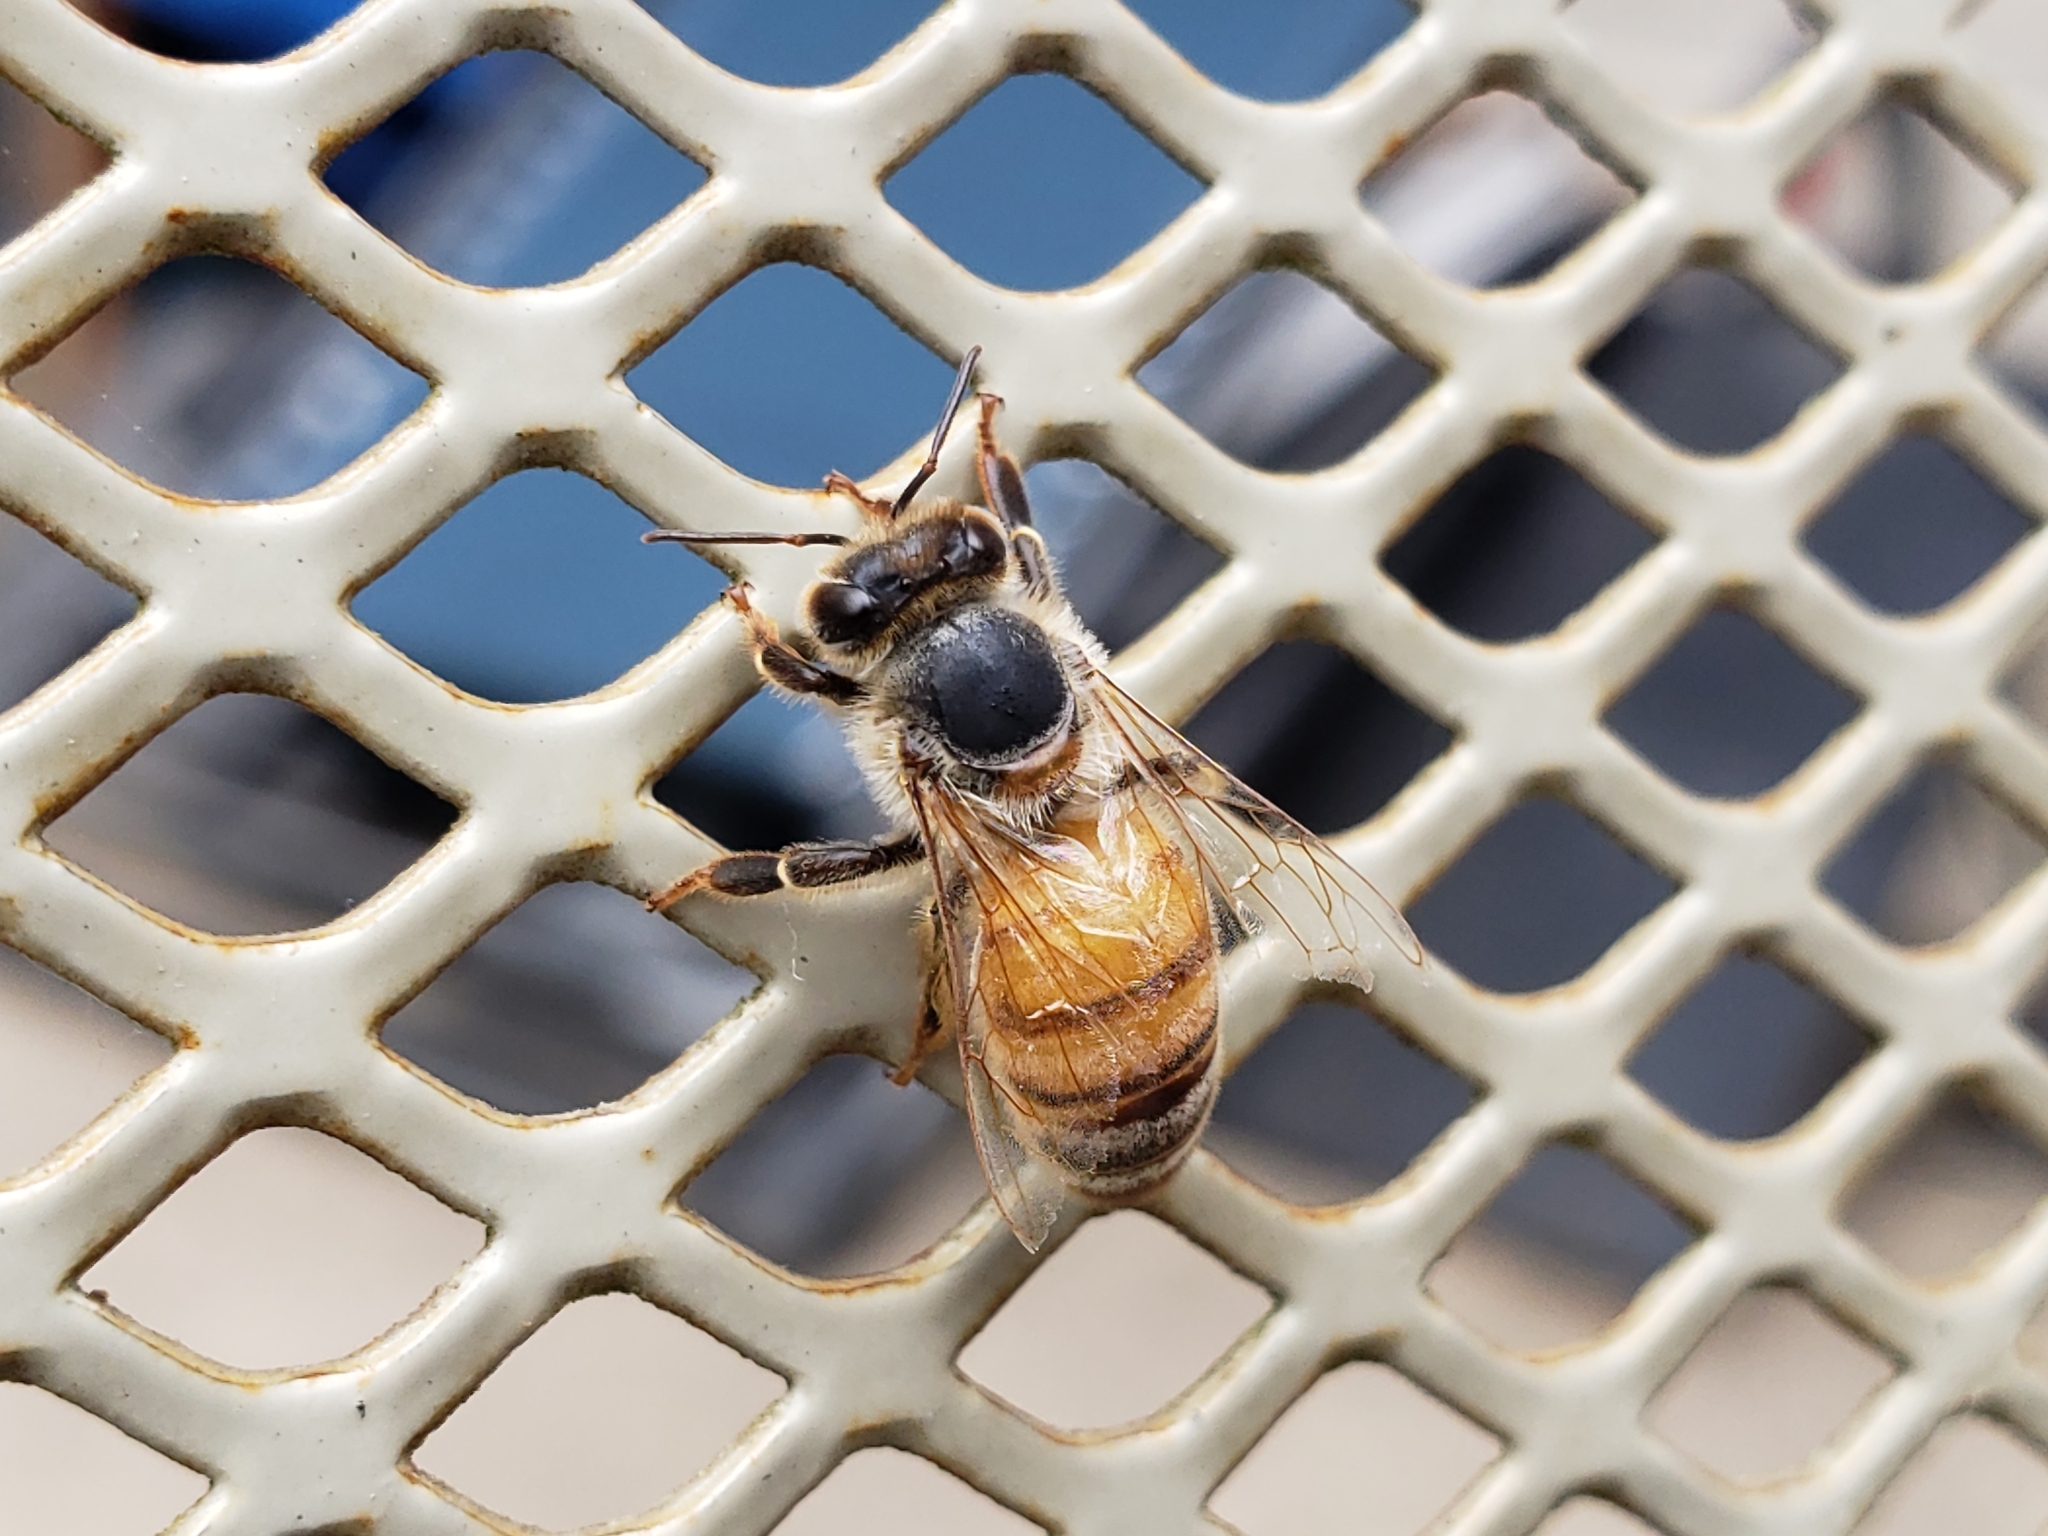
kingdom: Animalia
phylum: Arthropoda
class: Insecta
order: Hymenoptera
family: Apidae
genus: Apis
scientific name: Apis mellifera
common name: Honey bee
